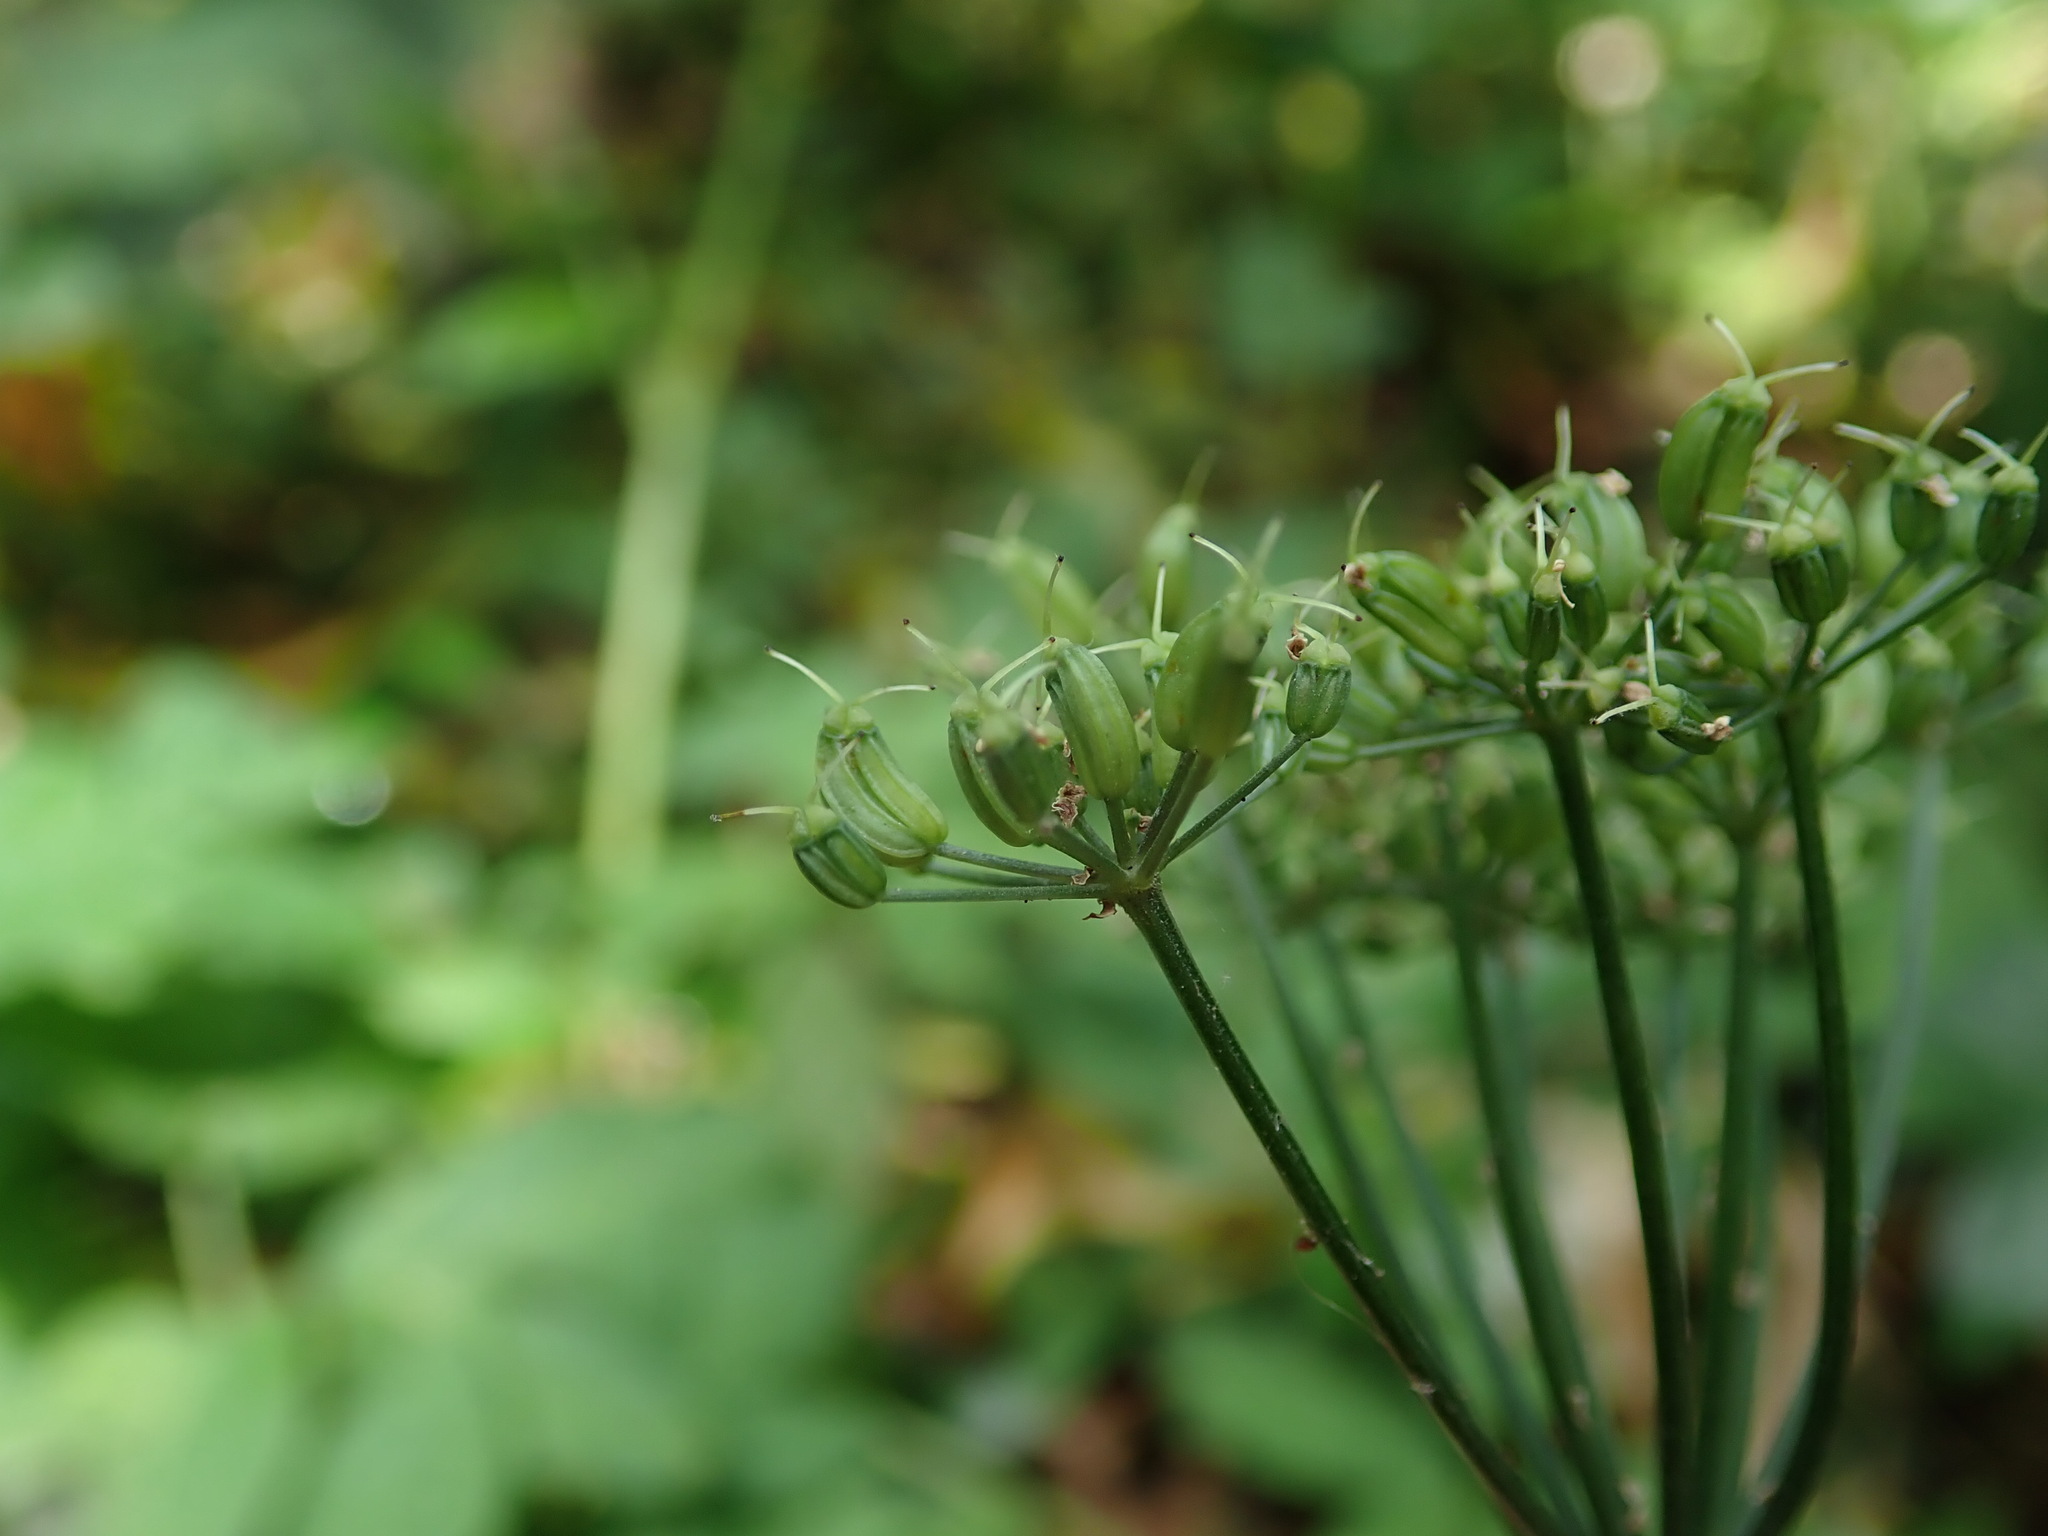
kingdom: Plantae
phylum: Tracheophyta
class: Magnoliopsida
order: Apiales
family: Apiaceae
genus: Aegopodium
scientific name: Aegopodium podagraria
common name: Ground-elder
